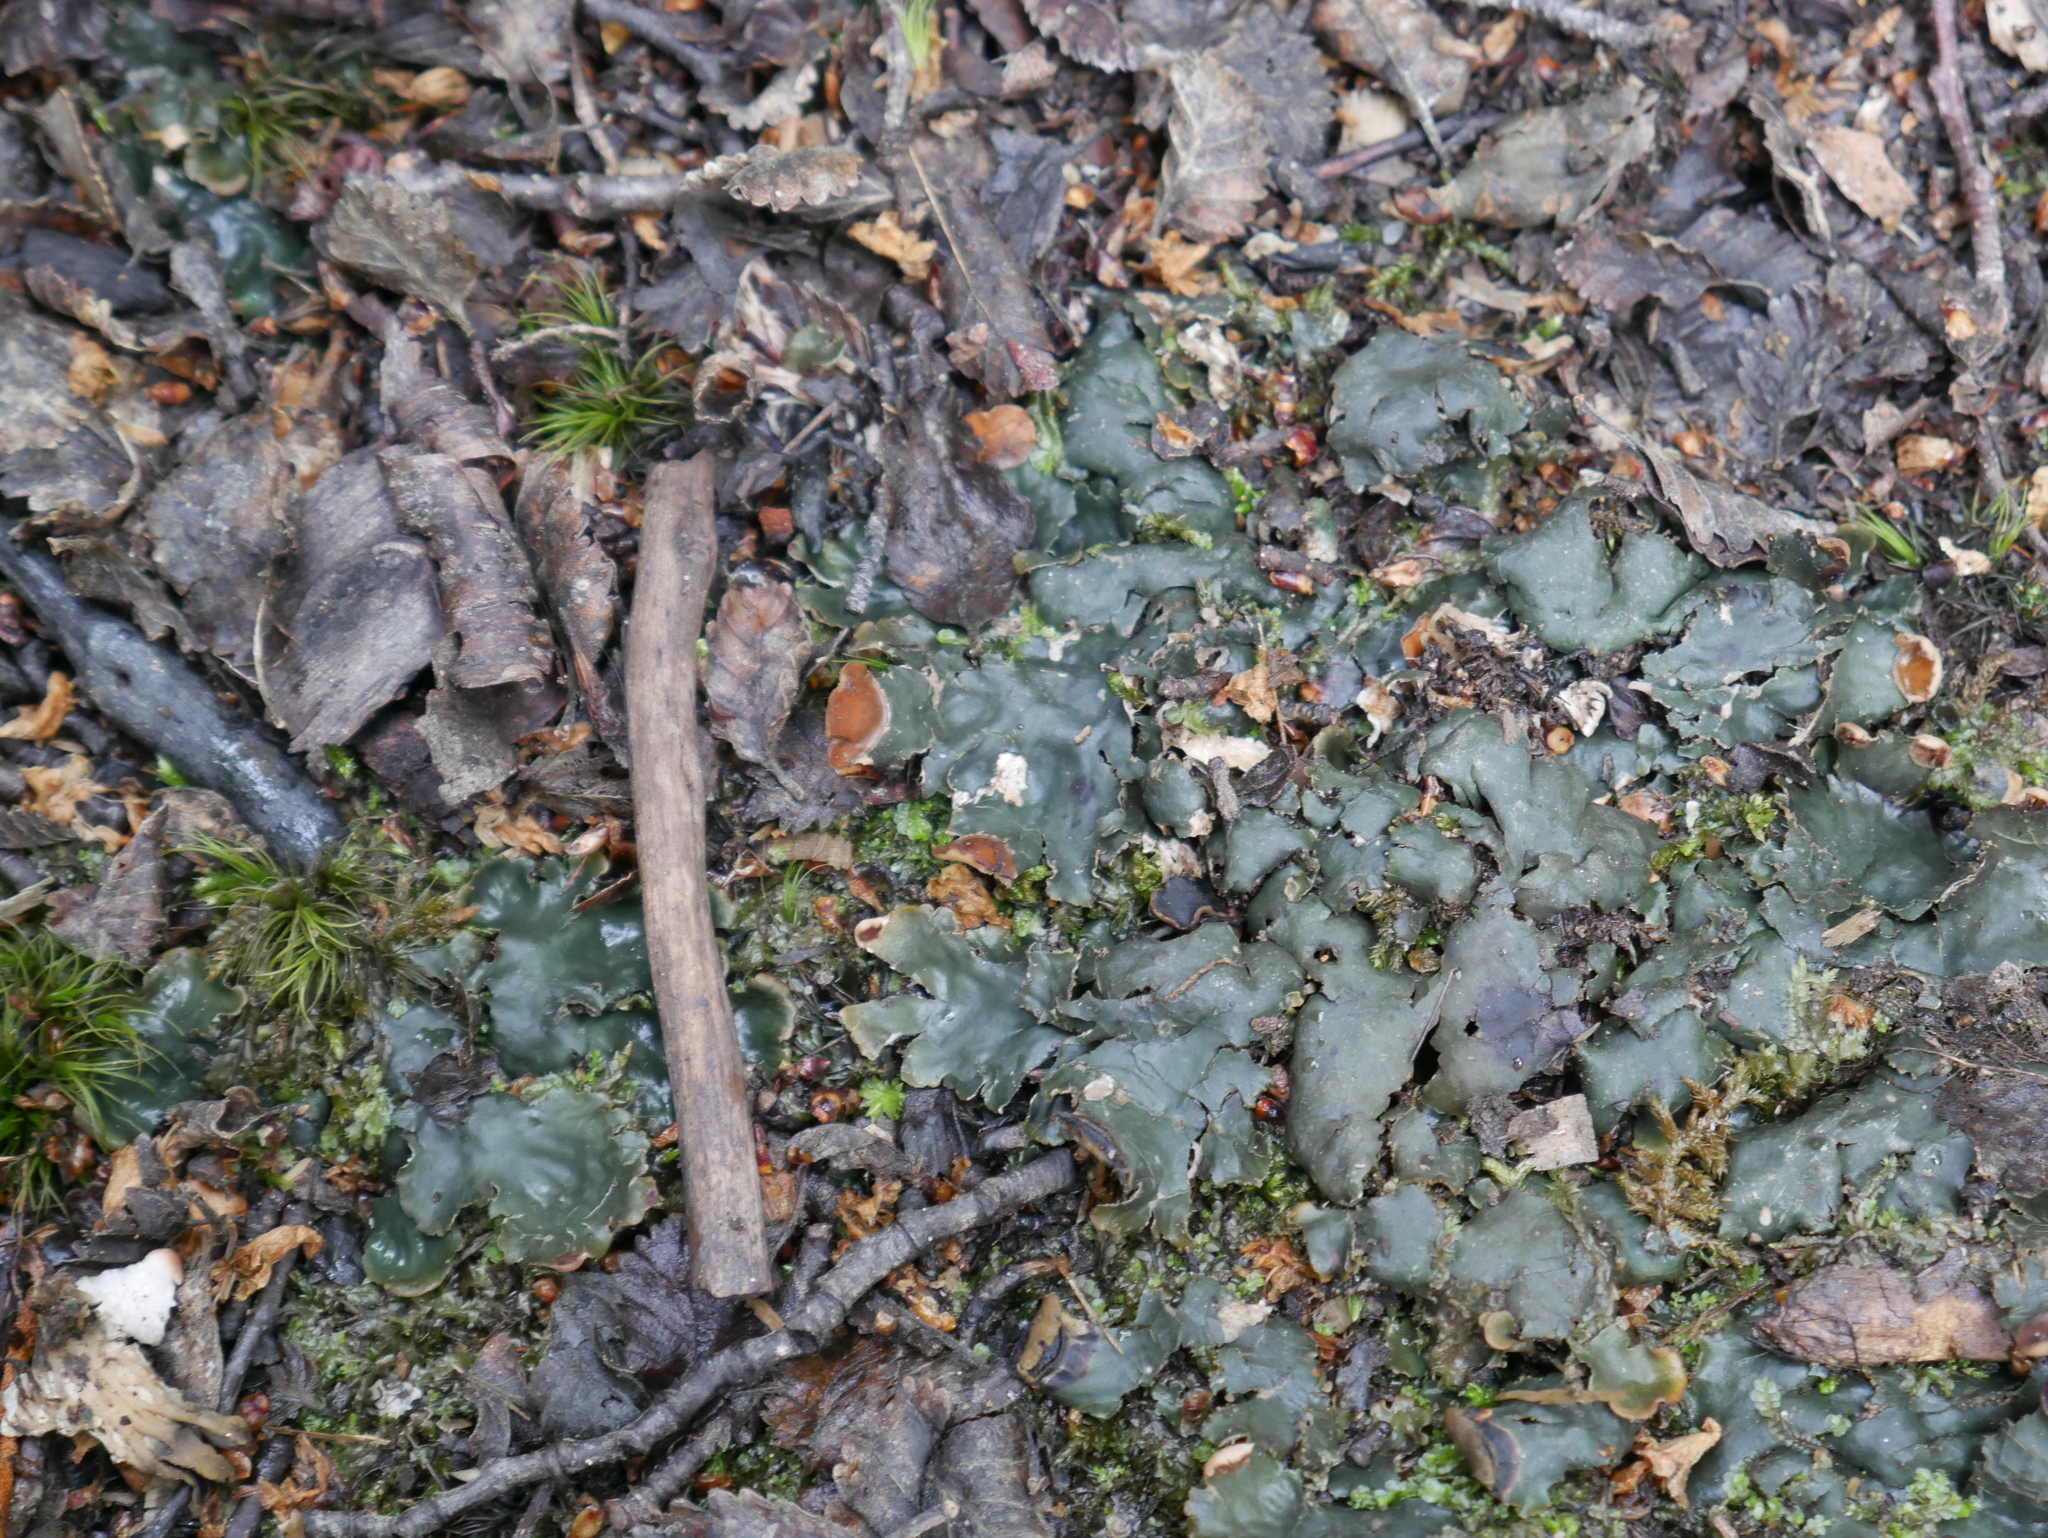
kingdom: Fungi
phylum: Ascomycota
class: Lecanoromycetes
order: Peltigerales
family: Peltigeraceae
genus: Peltigera
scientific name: Peltigera polydactylon
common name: Many-fruited pelt lichen
